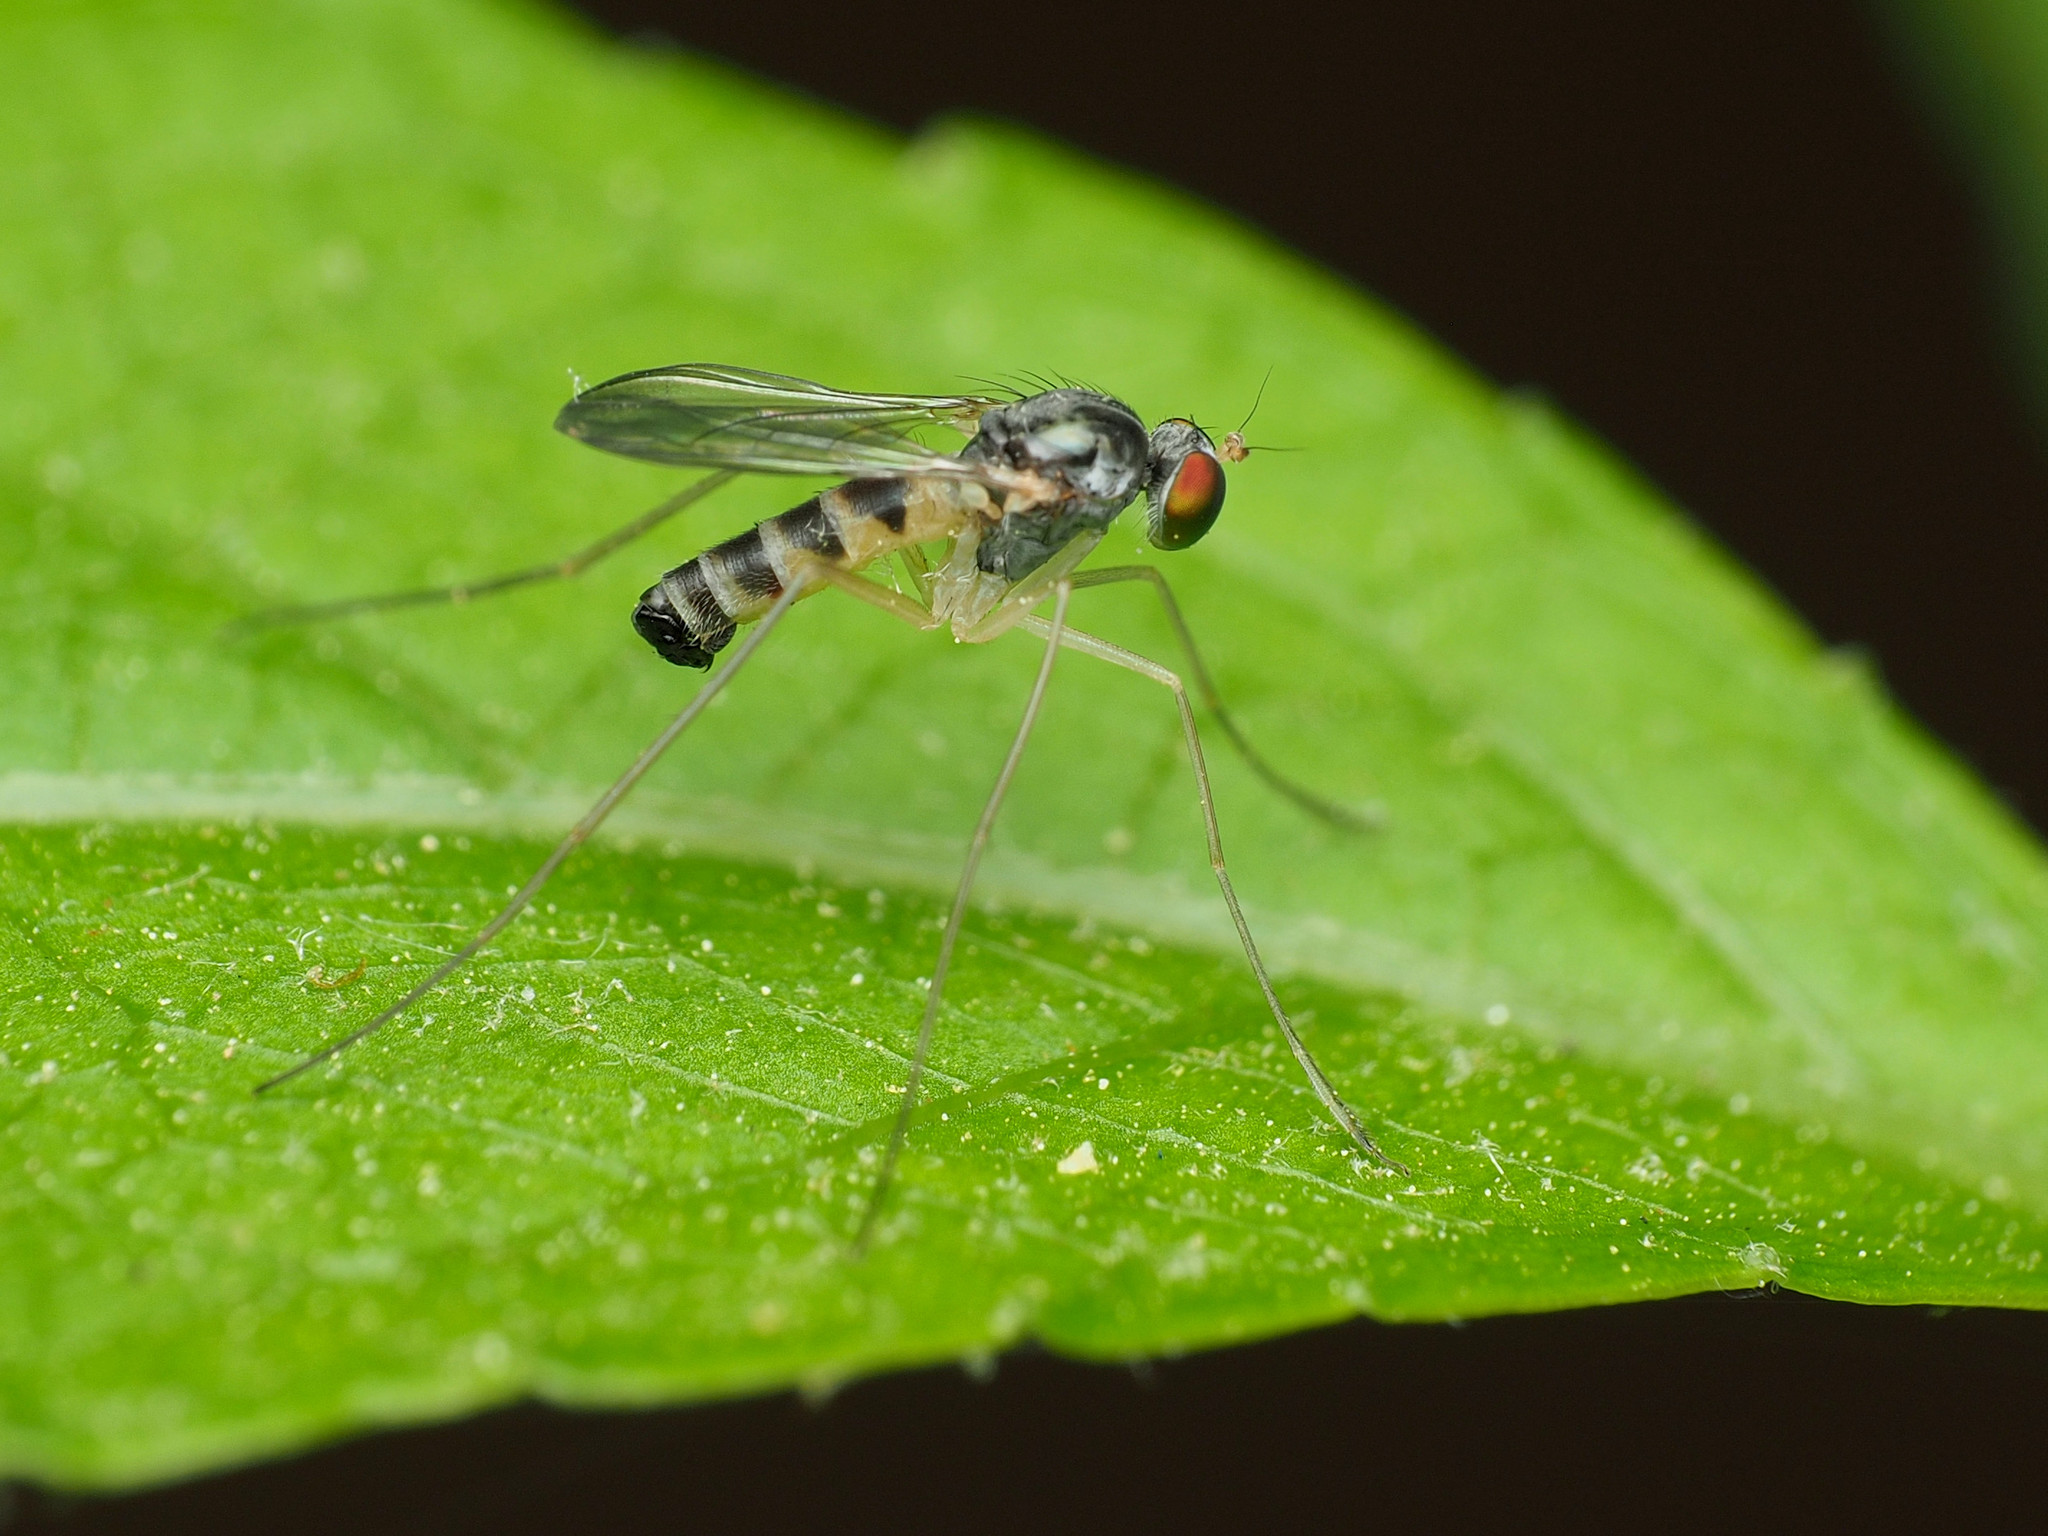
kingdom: Animalia
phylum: Arthropoda
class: Insecta
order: Diptera
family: Dolichopodidae
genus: Neurigona
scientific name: Neurigona deformis
